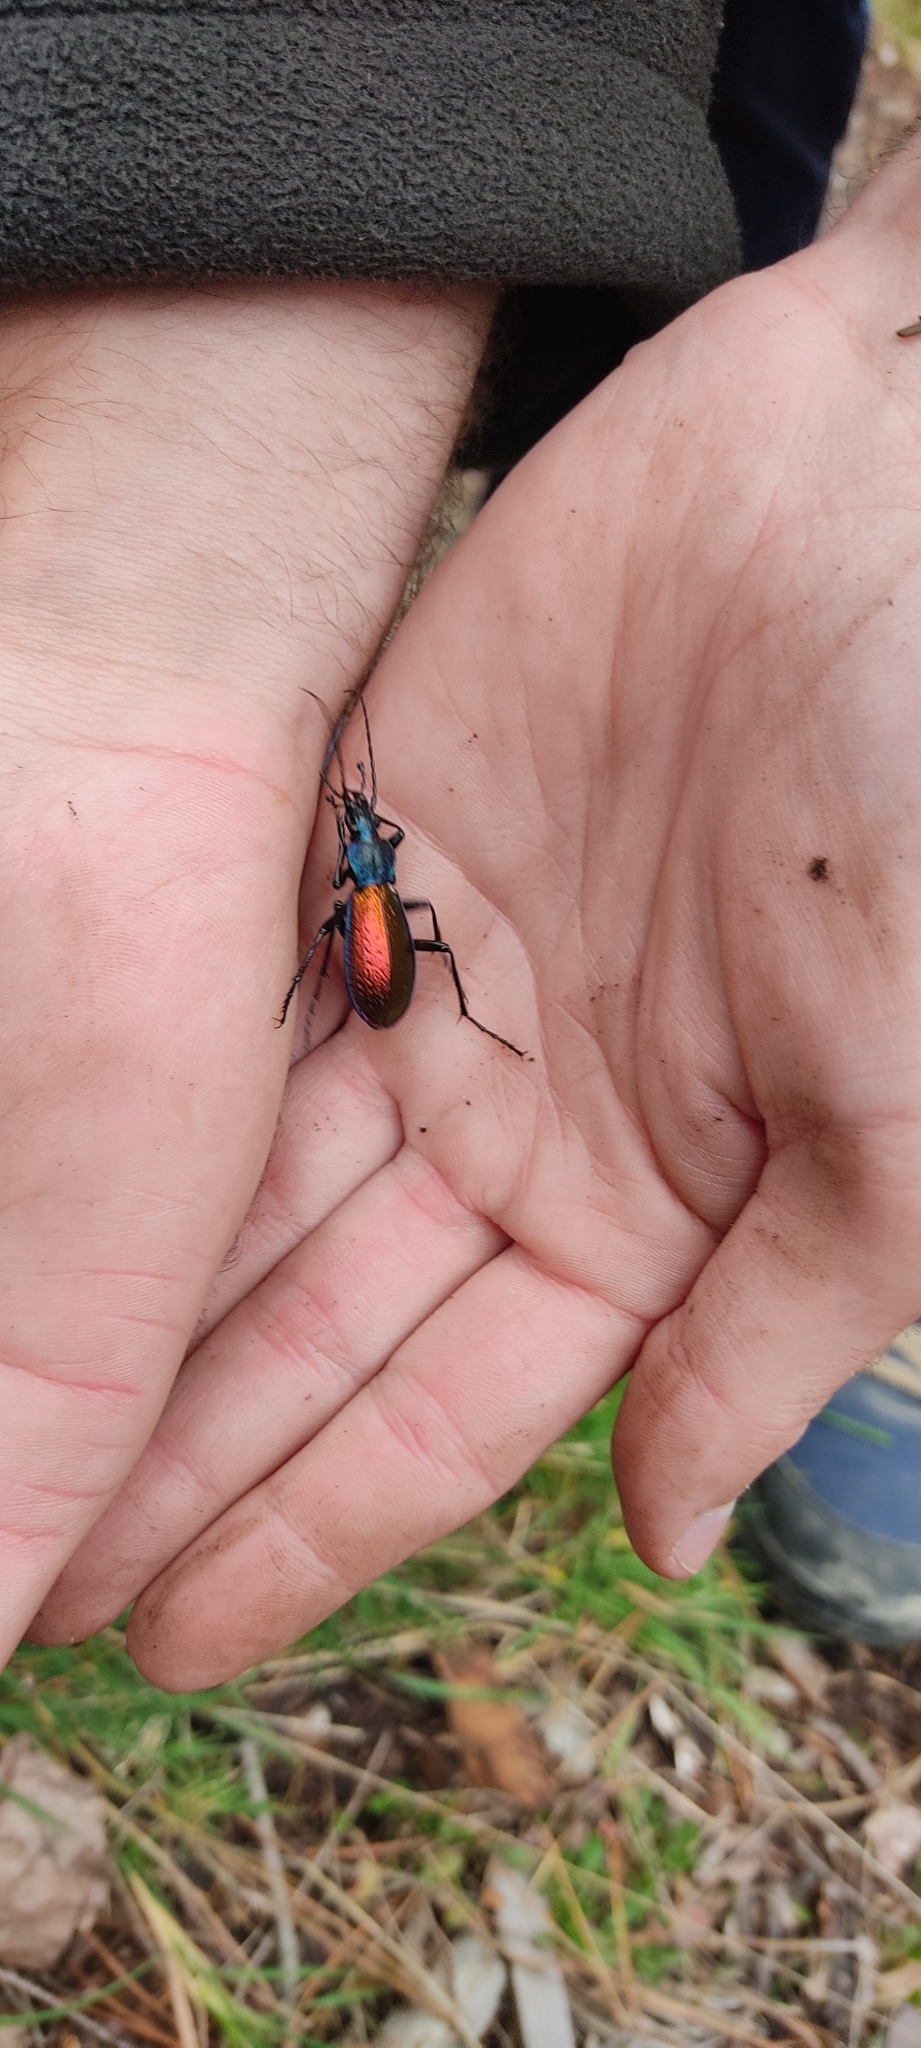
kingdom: Animalia
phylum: Arthropoda
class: Insecta
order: Coleoptera
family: Carabidae
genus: Carabus
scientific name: Carabus hispanus
